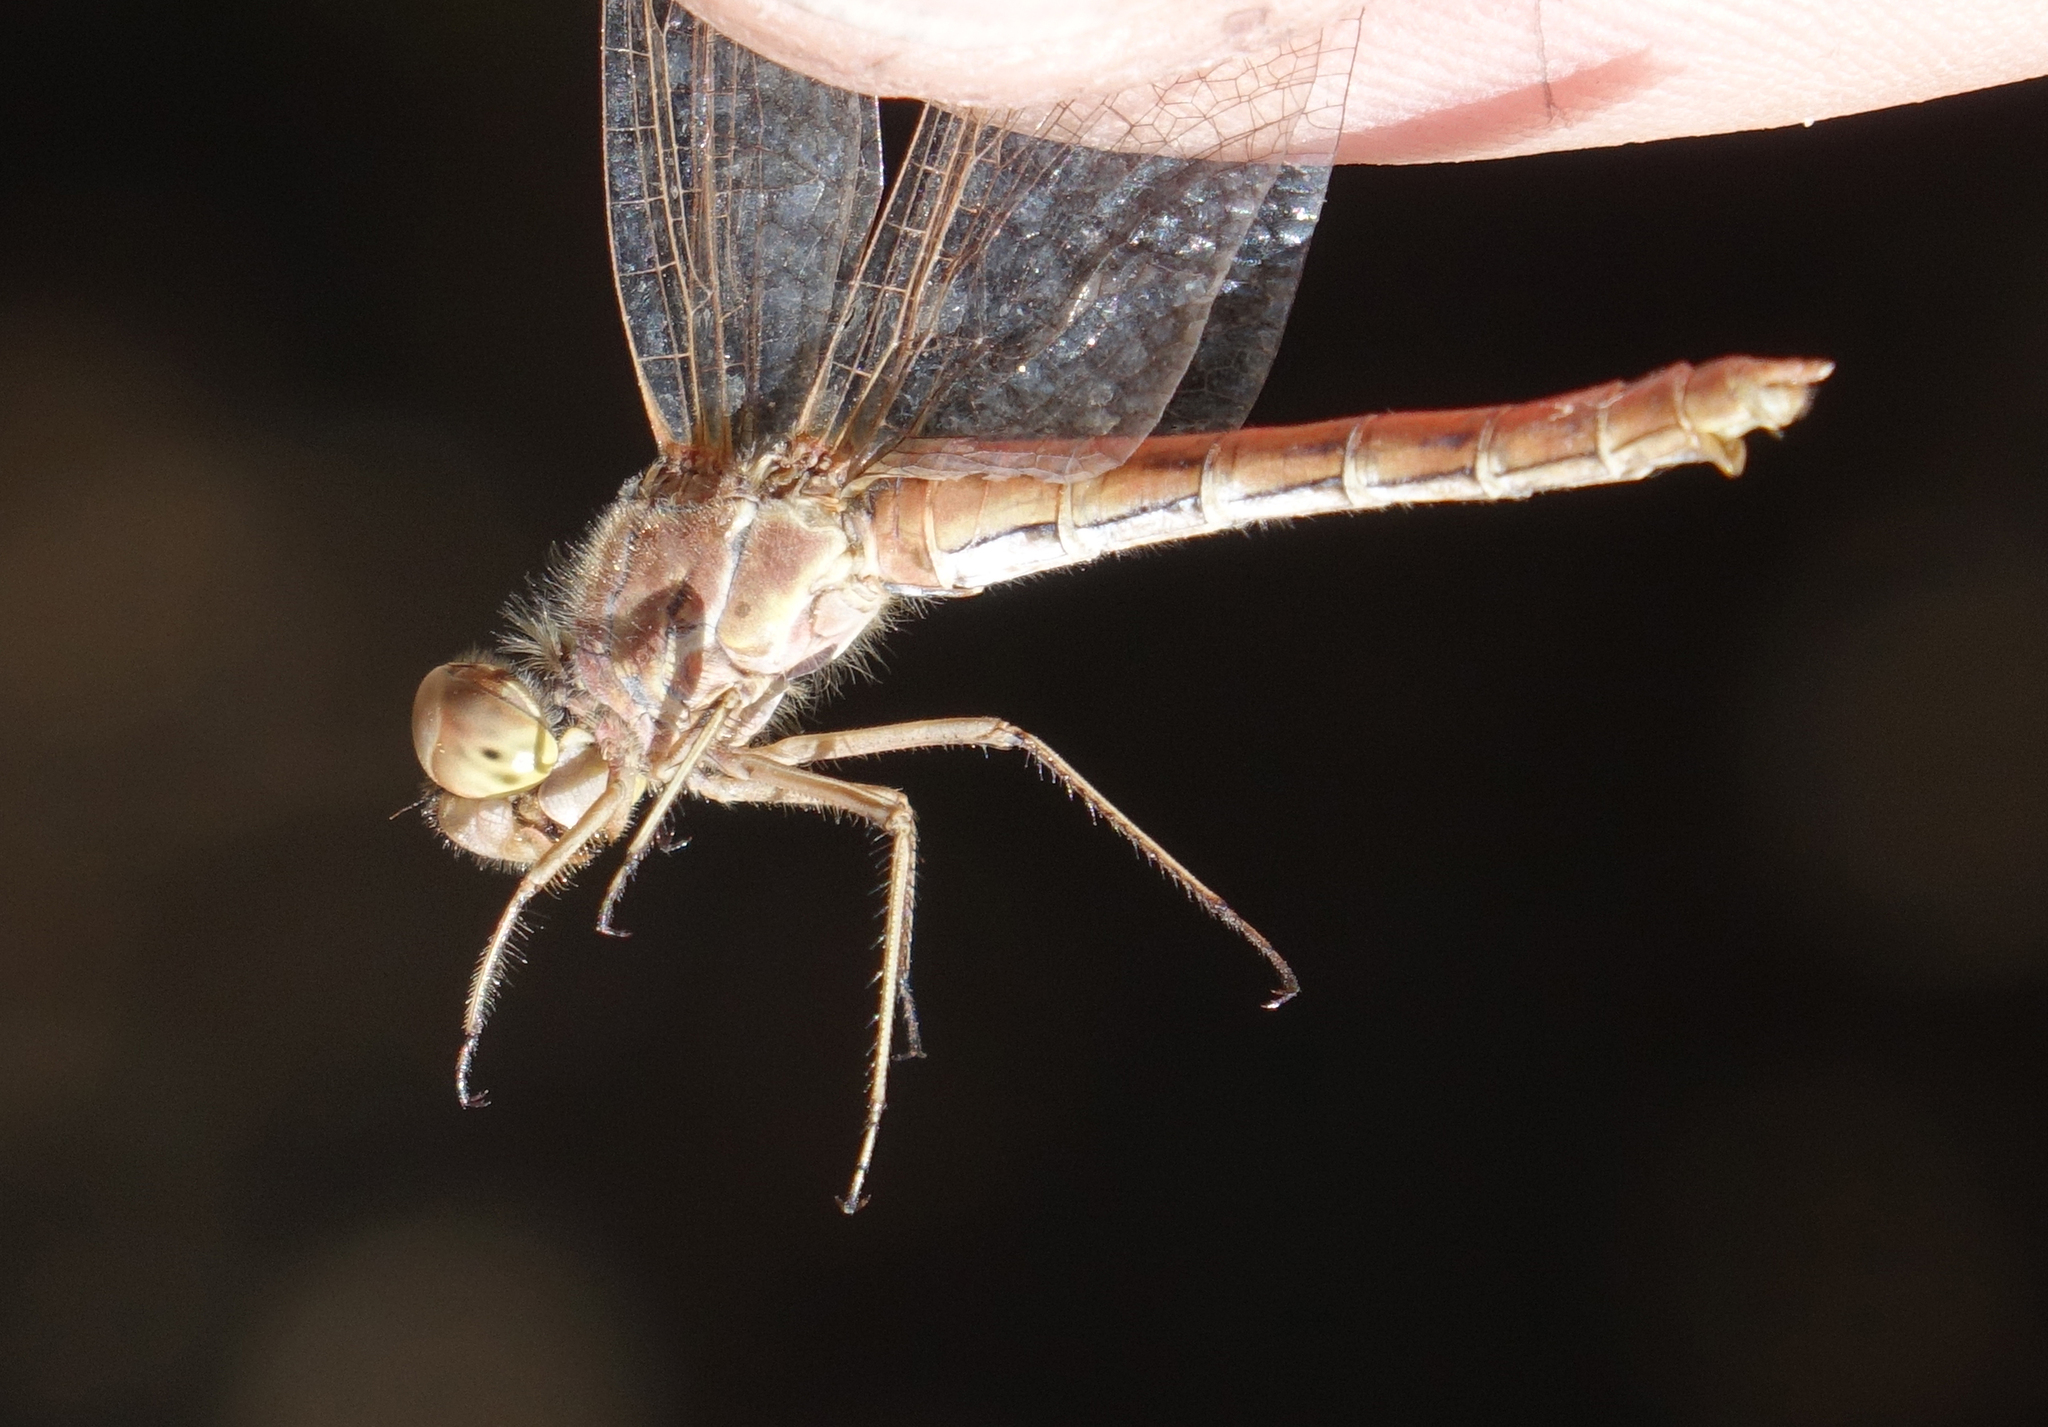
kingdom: Animalia
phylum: Arthropoda
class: Insecta
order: Odonata
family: Libellulidae
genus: Sympetrum
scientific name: Sympetrum vulgatum
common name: Vagrant darter
